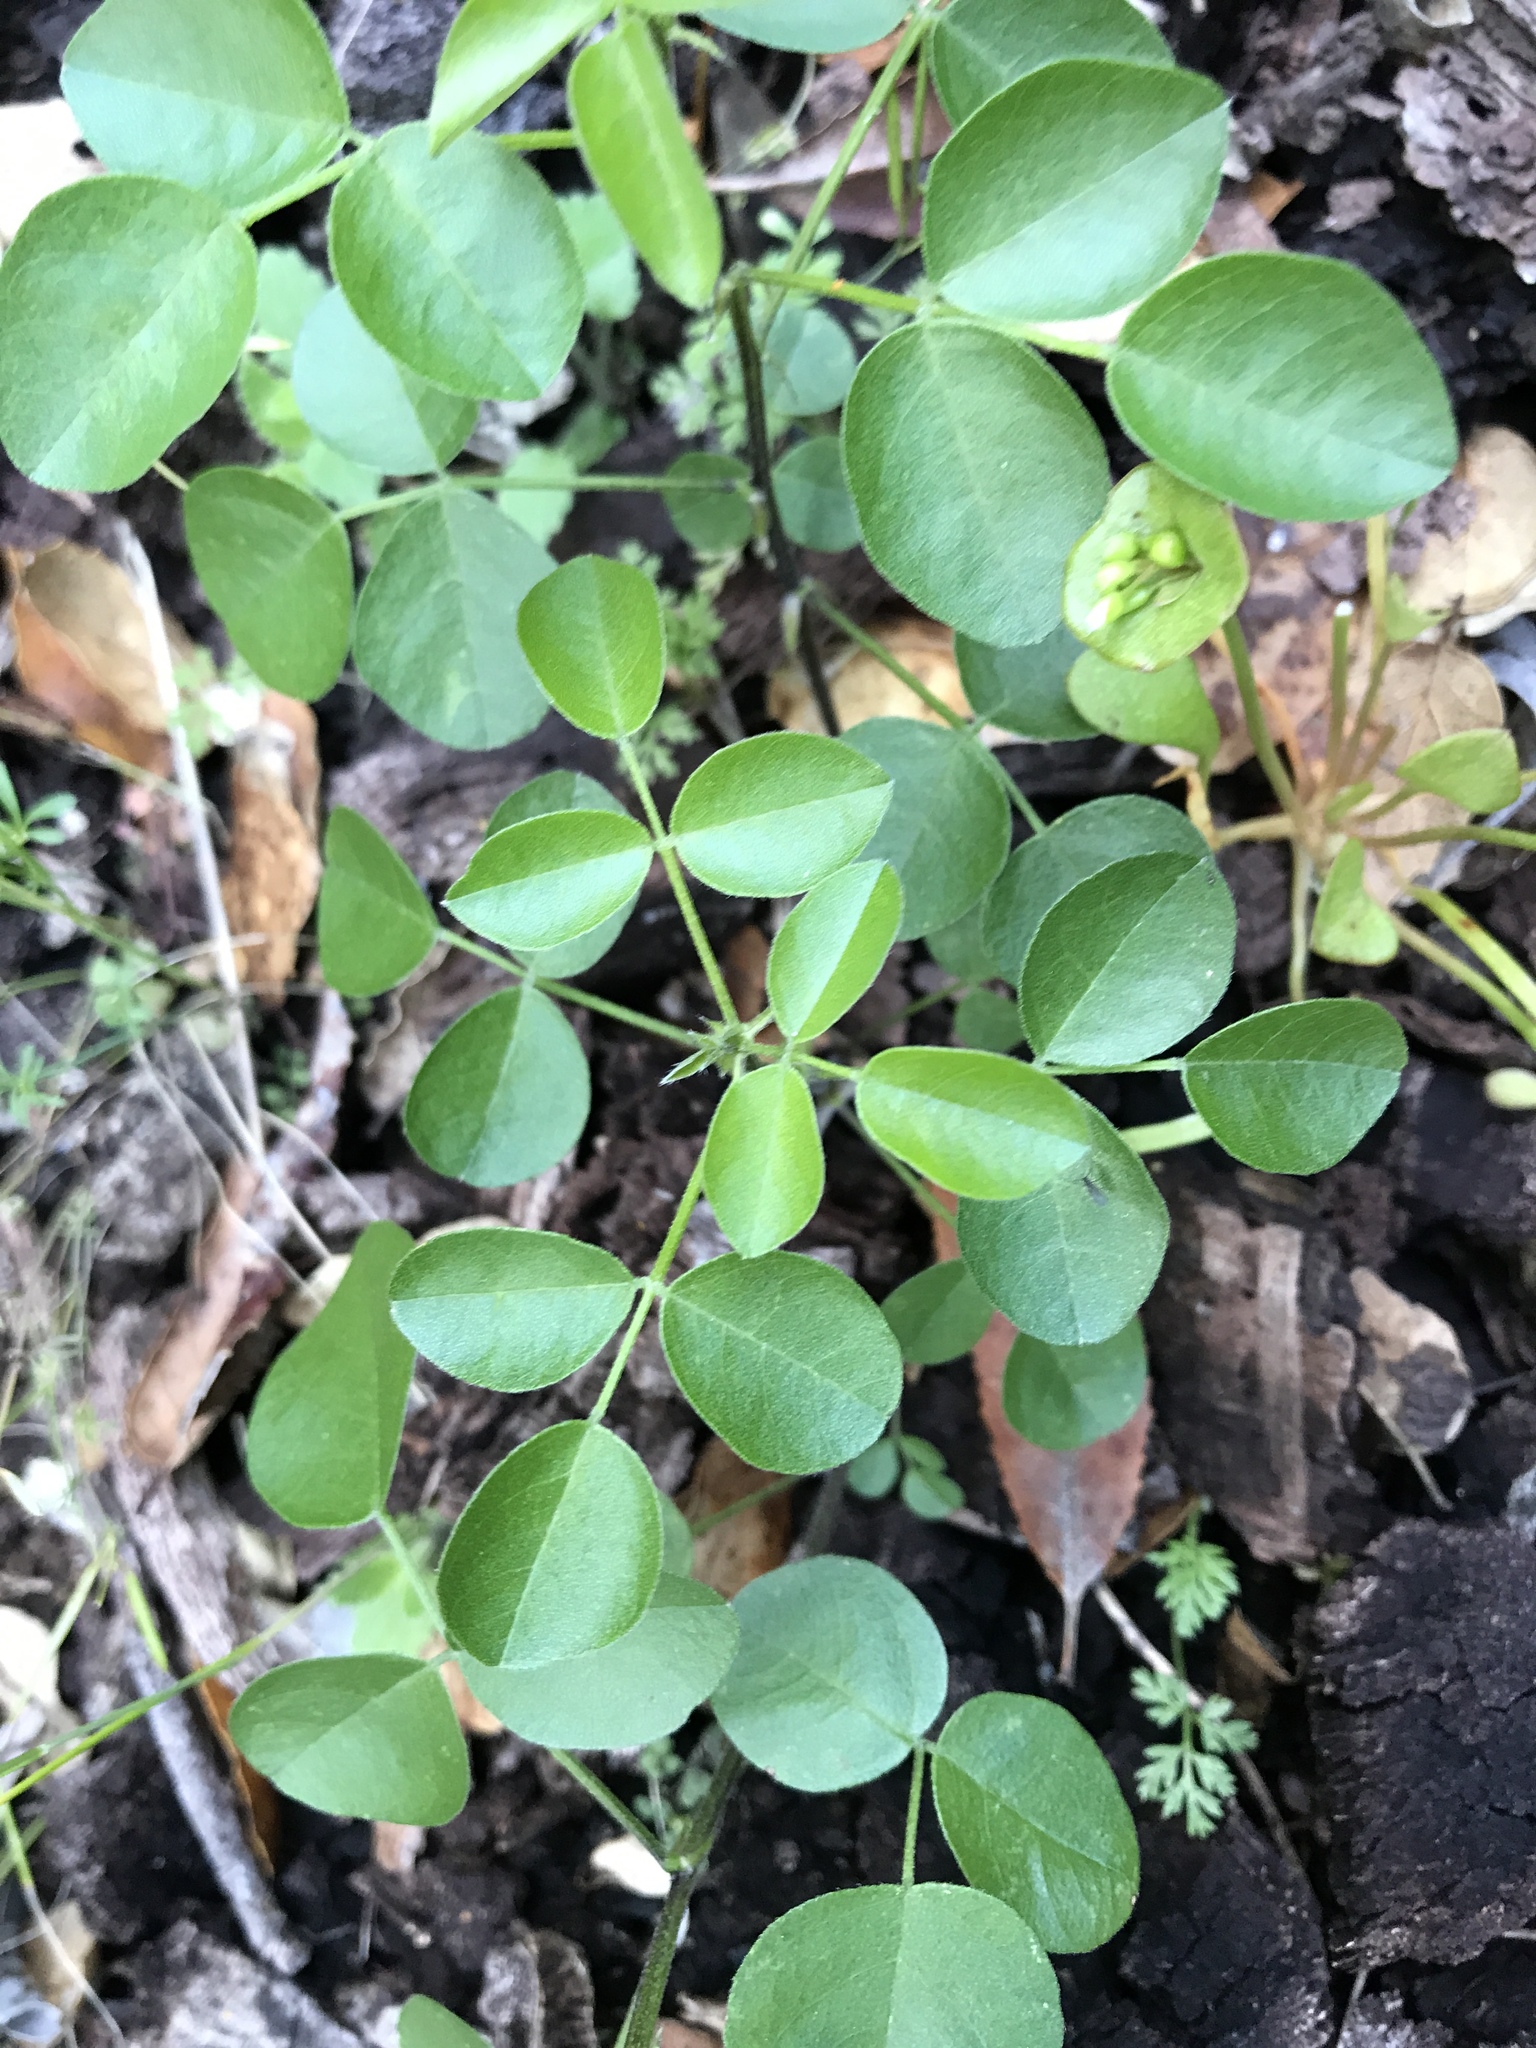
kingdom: Plantae
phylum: Tracheophyta
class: Magnoliopsida
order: Fabales
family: Fabaceae
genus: Rupertia
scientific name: Rupertia physodes
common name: California-tea
